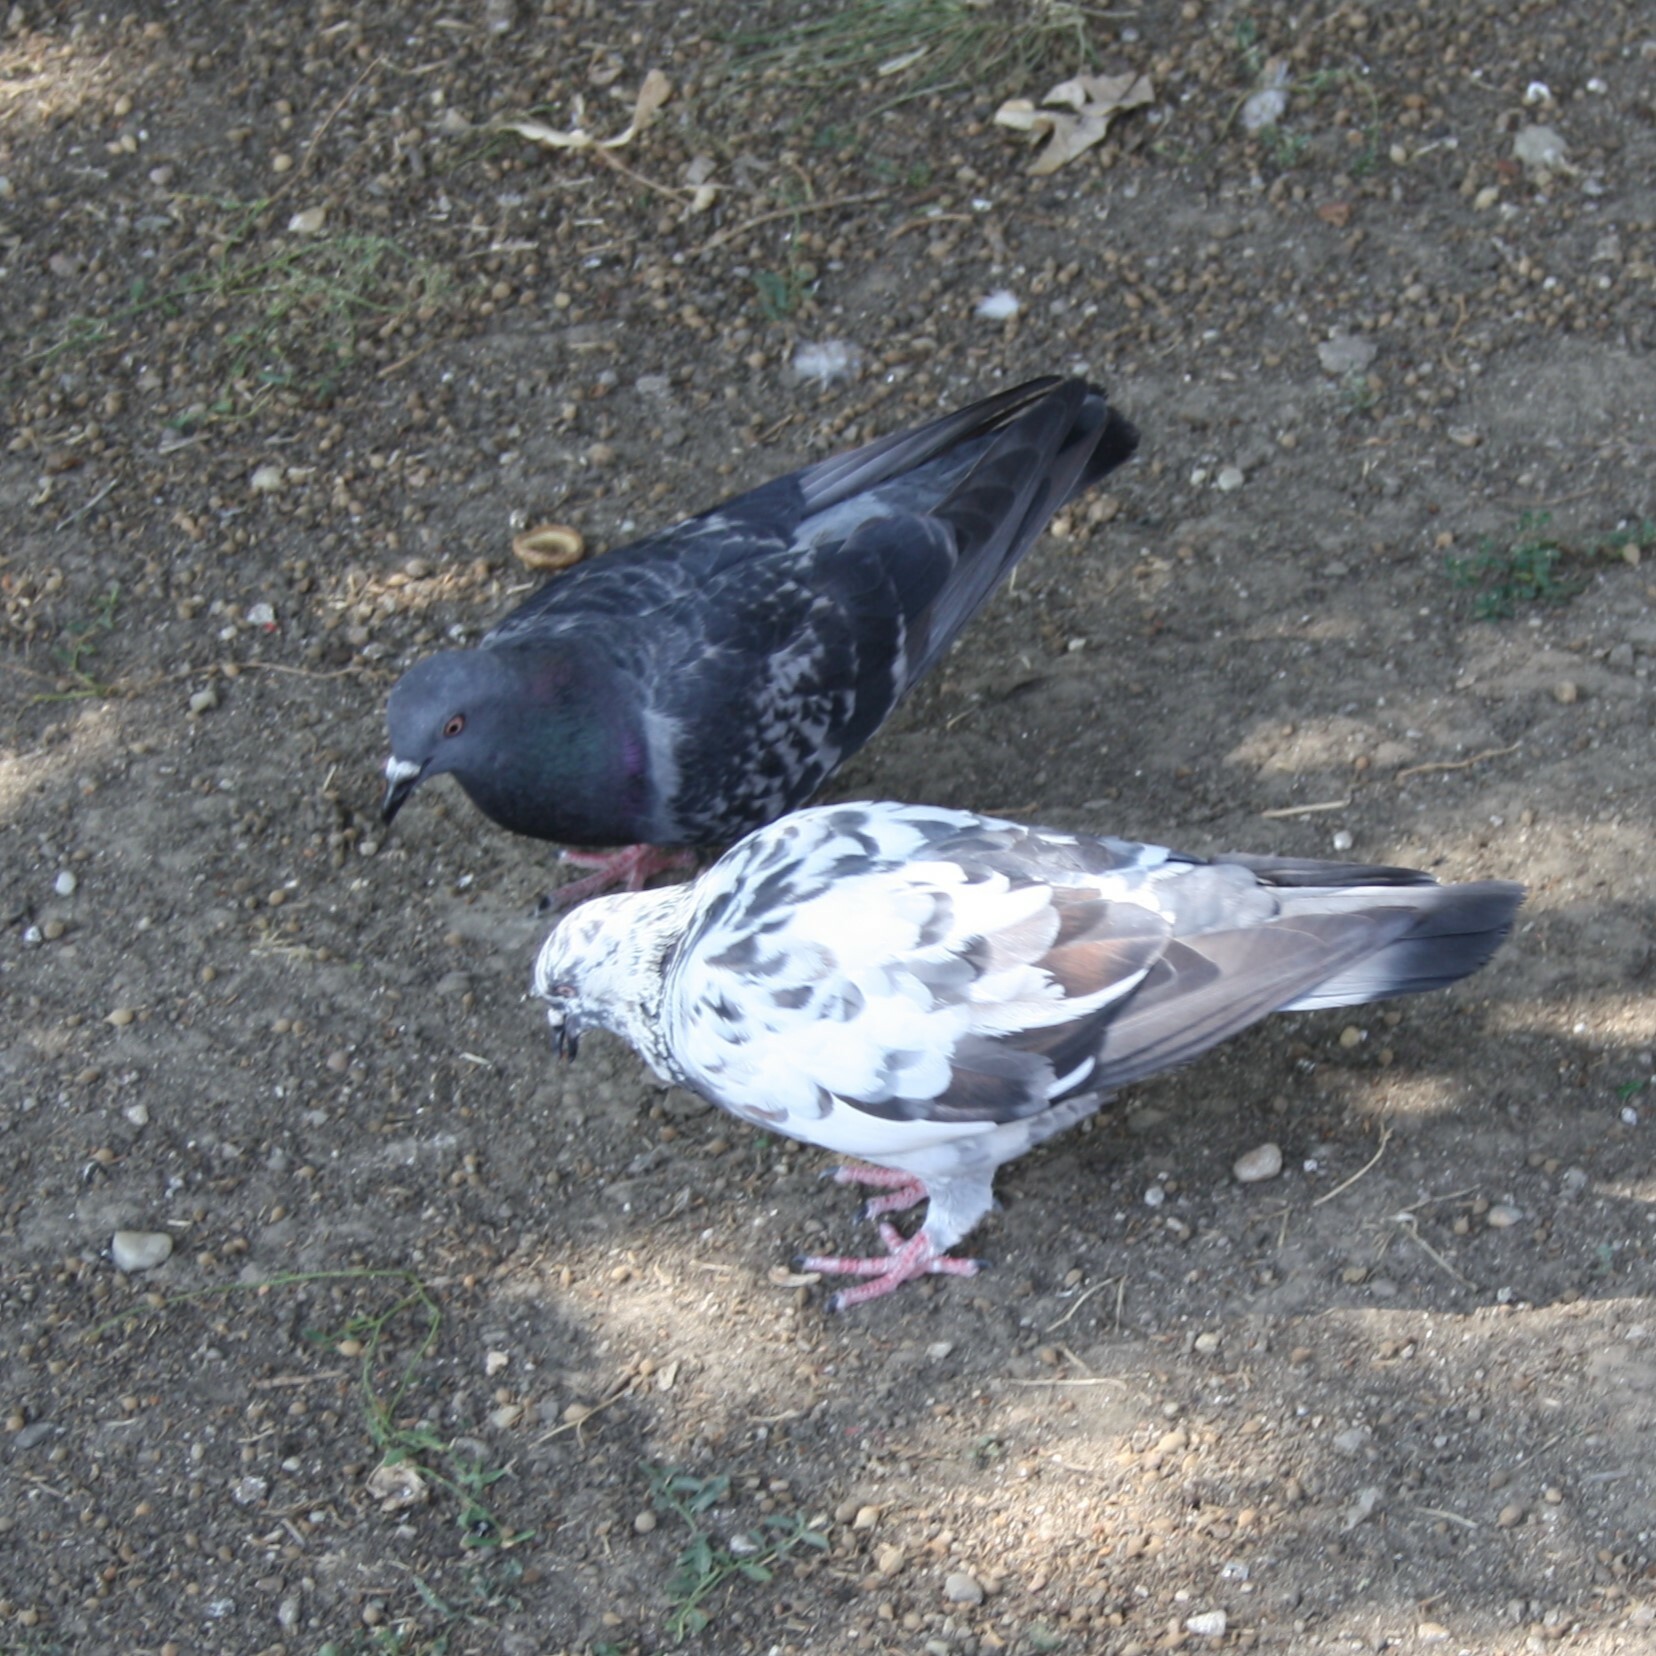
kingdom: Animalia
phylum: Chordata
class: Aves
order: Columbiformes
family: Columbidae
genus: Columba
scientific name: Columba livia
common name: Rock pigeon
